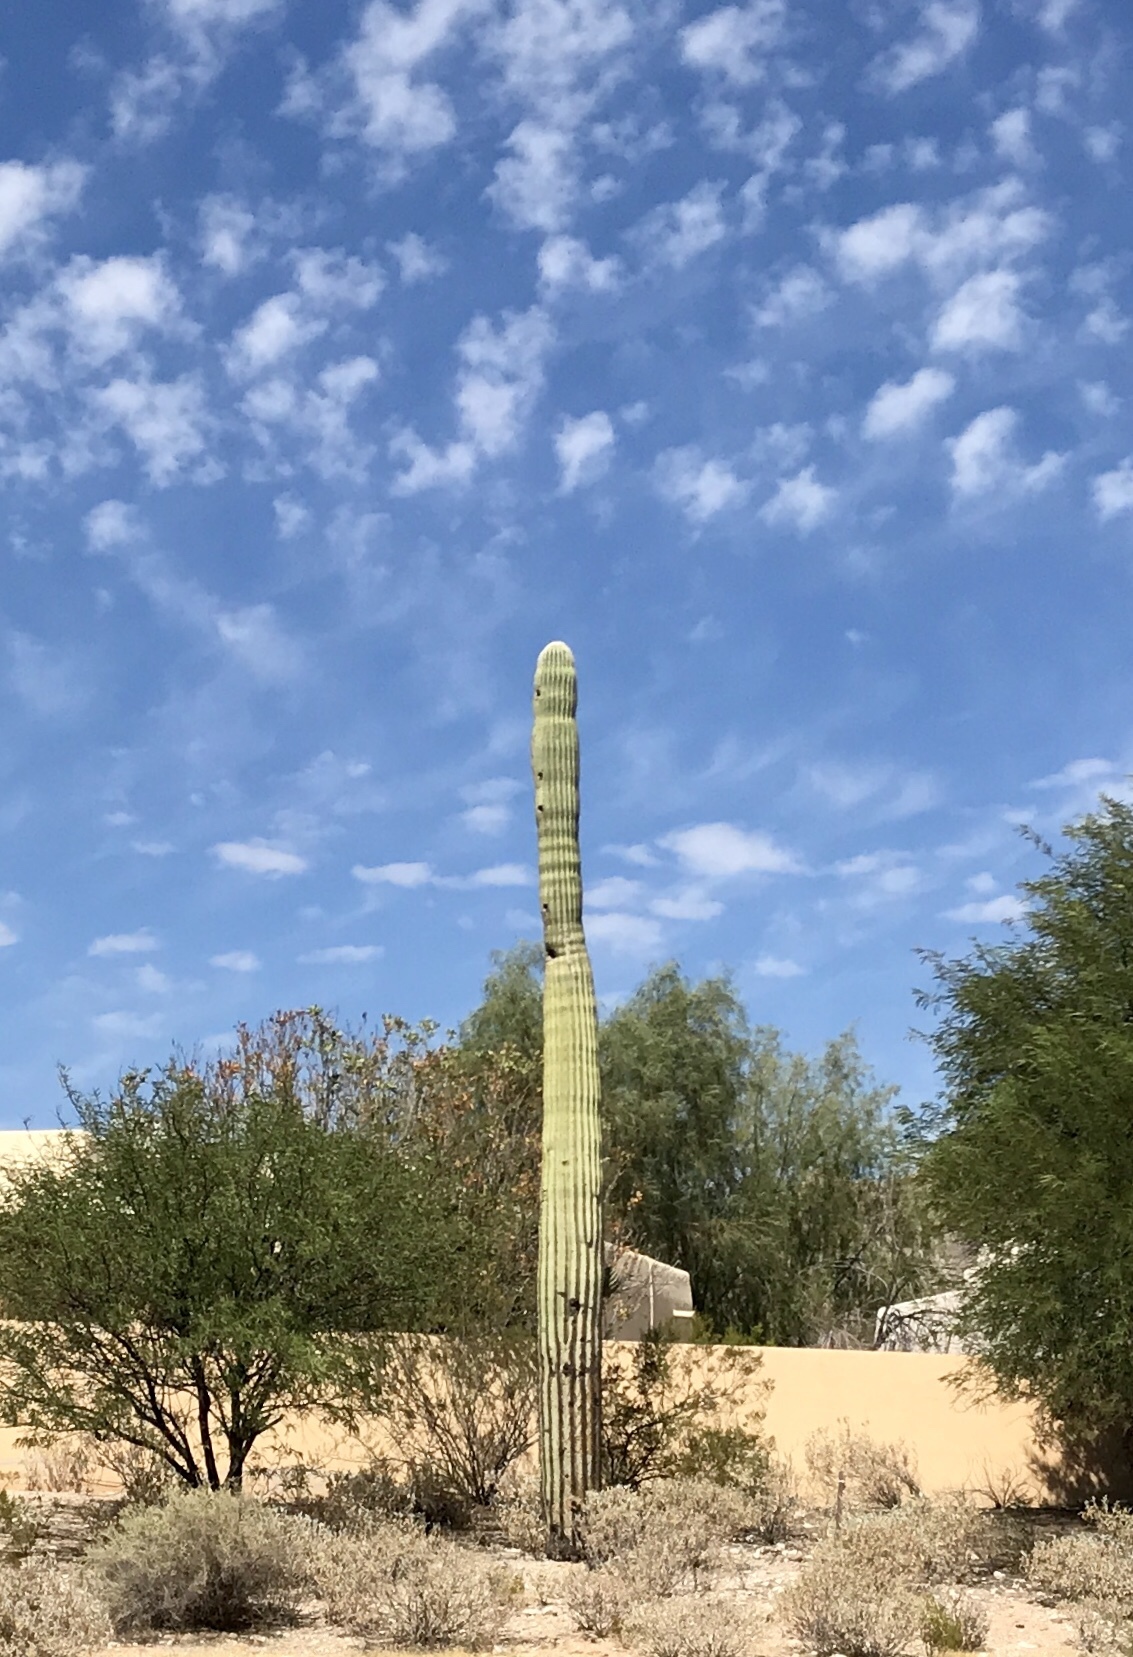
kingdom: Plantae
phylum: Tracheophyta
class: Magnoliopsida
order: Caryophyllales
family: Cactaceae
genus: Carnegiea
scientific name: Carnegiea gigantea
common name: Saguaro
